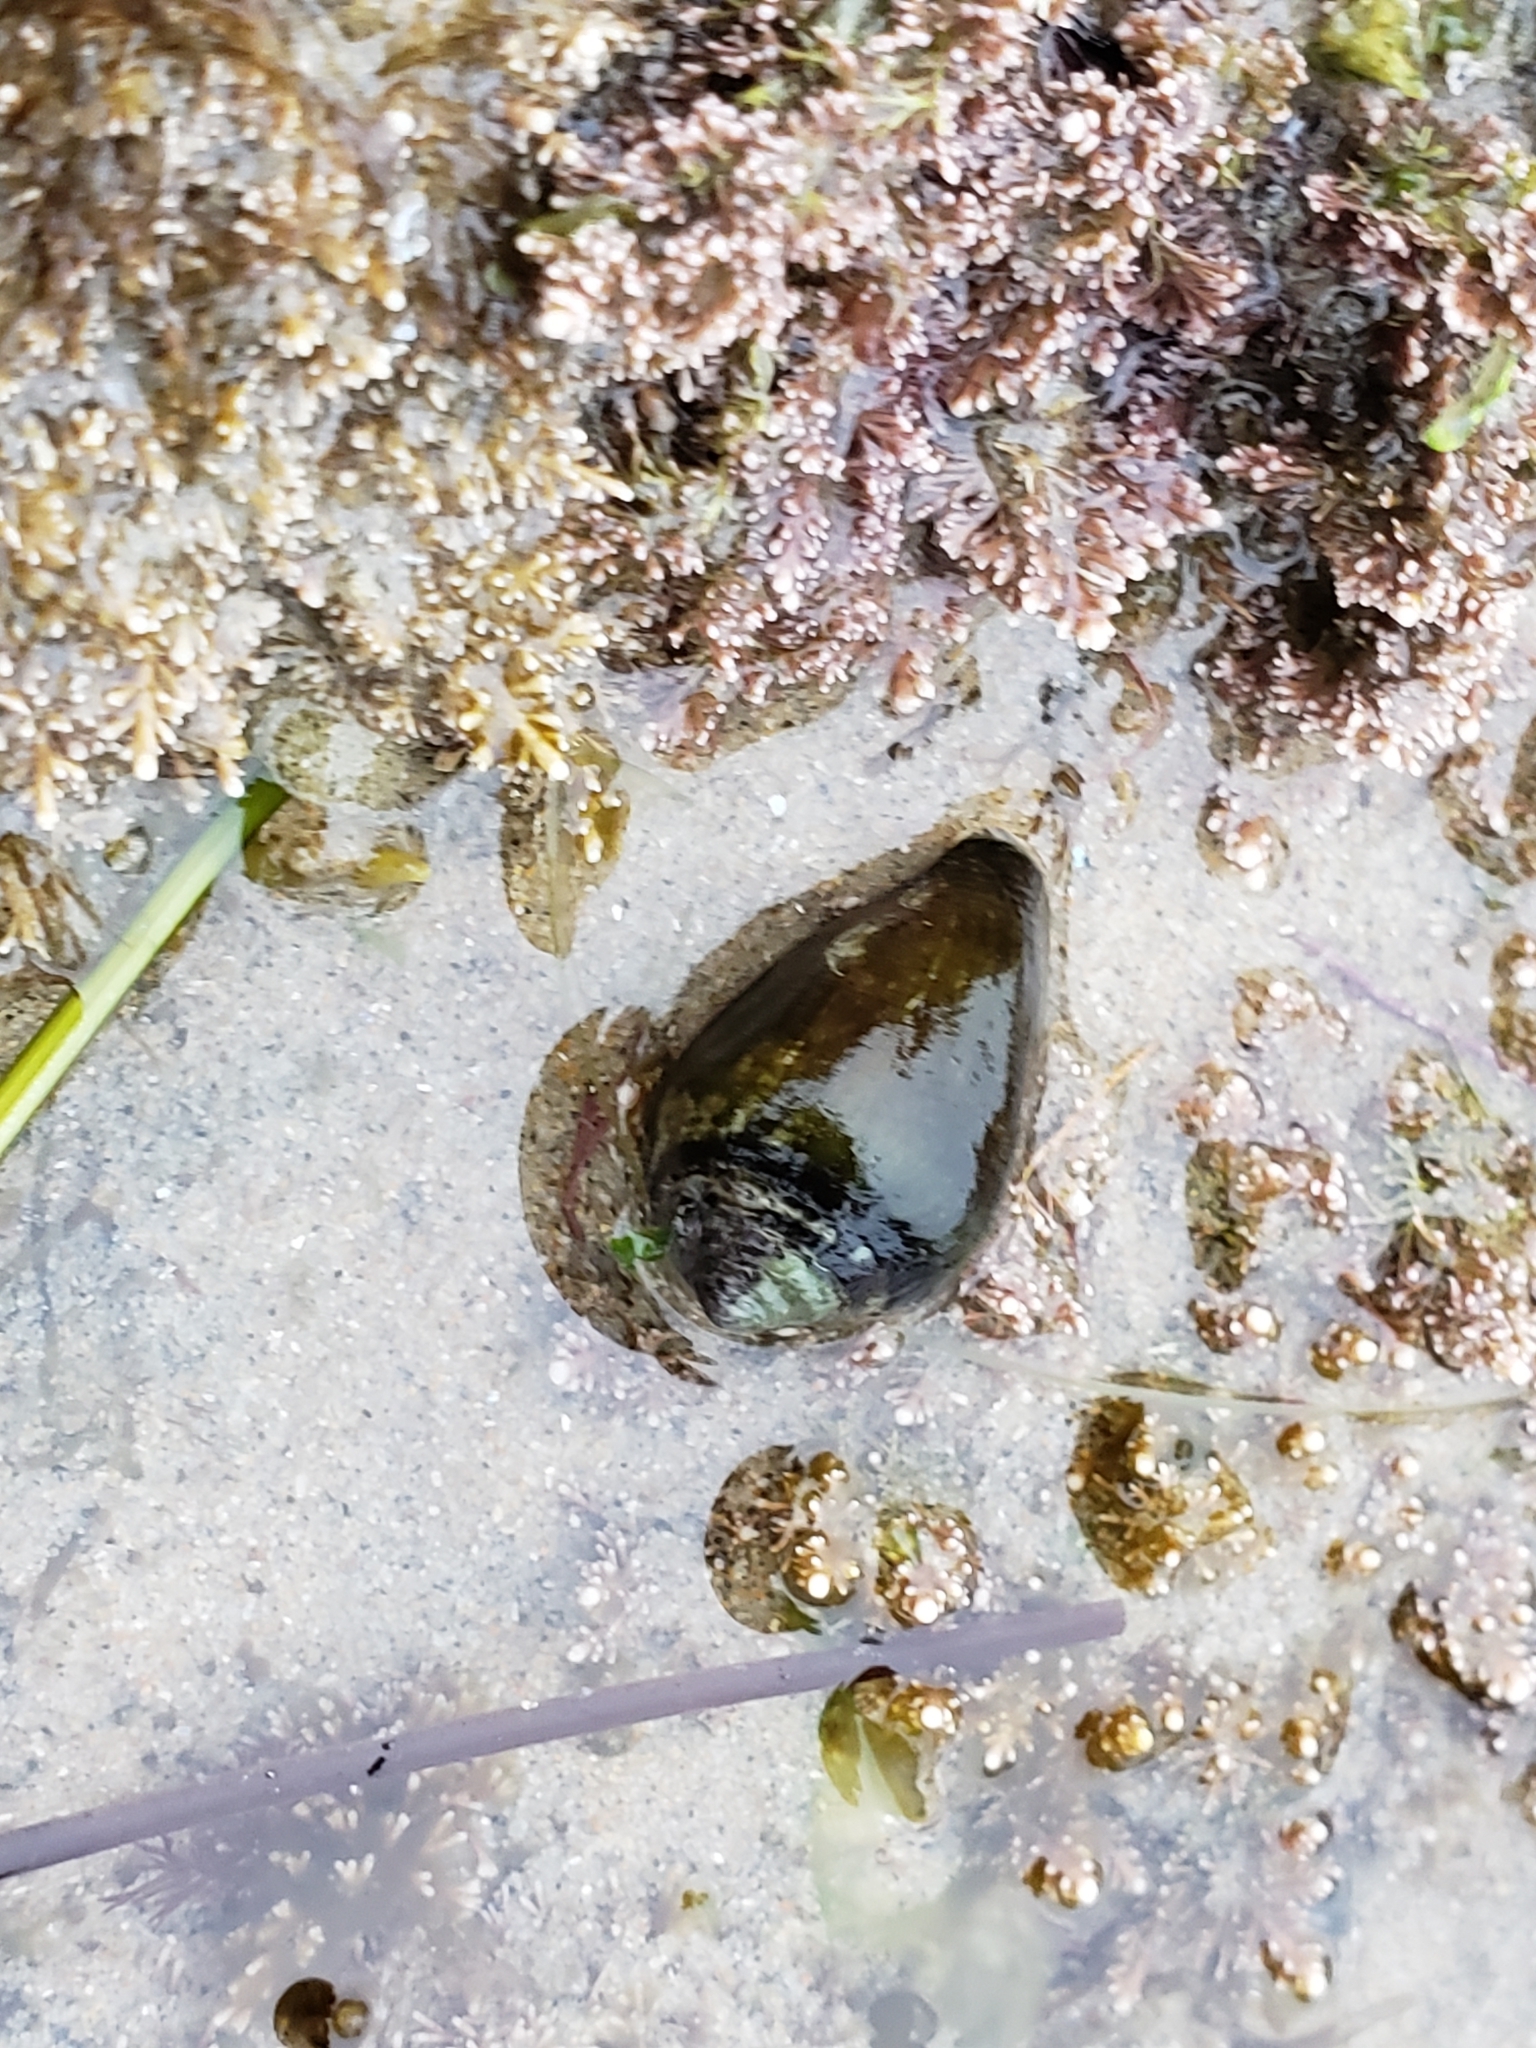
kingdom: Animalia
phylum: Mollusca
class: Gastropoda
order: Neogastropoda
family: Conidae
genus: Californiconus
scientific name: Californiconus californicus
